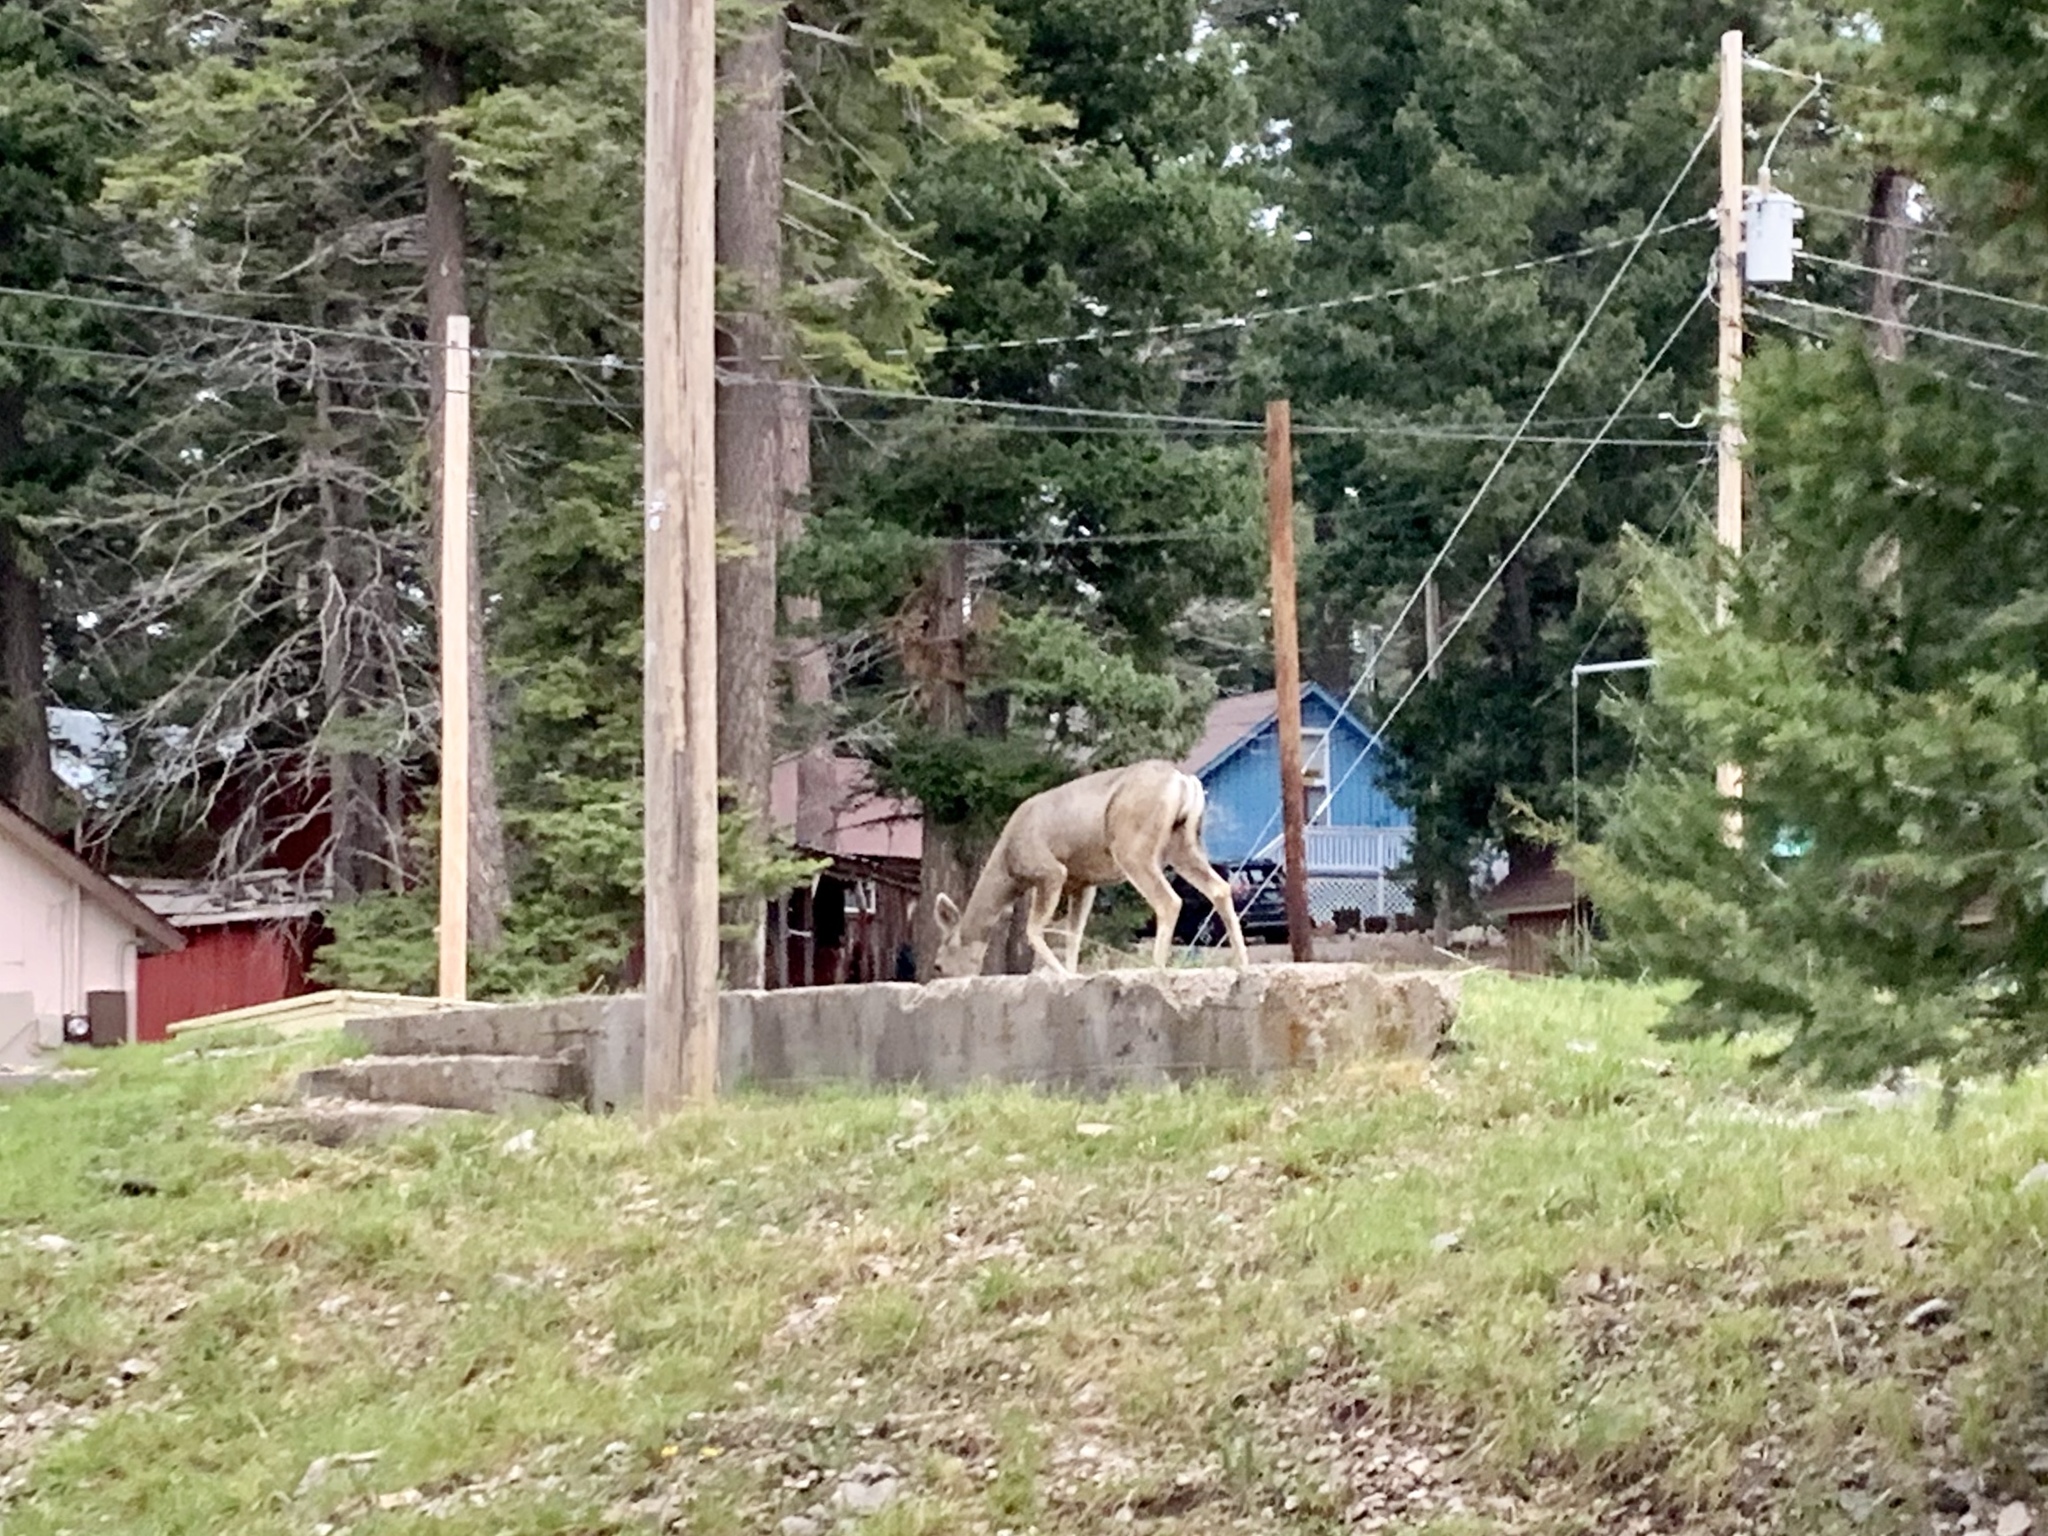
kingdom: Animalia
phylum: Chordata
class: Mammalia
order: Artiodactyla
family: Cervidae
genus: Odocoileus
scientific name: Odocoileus hemionus
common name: Mule deer
